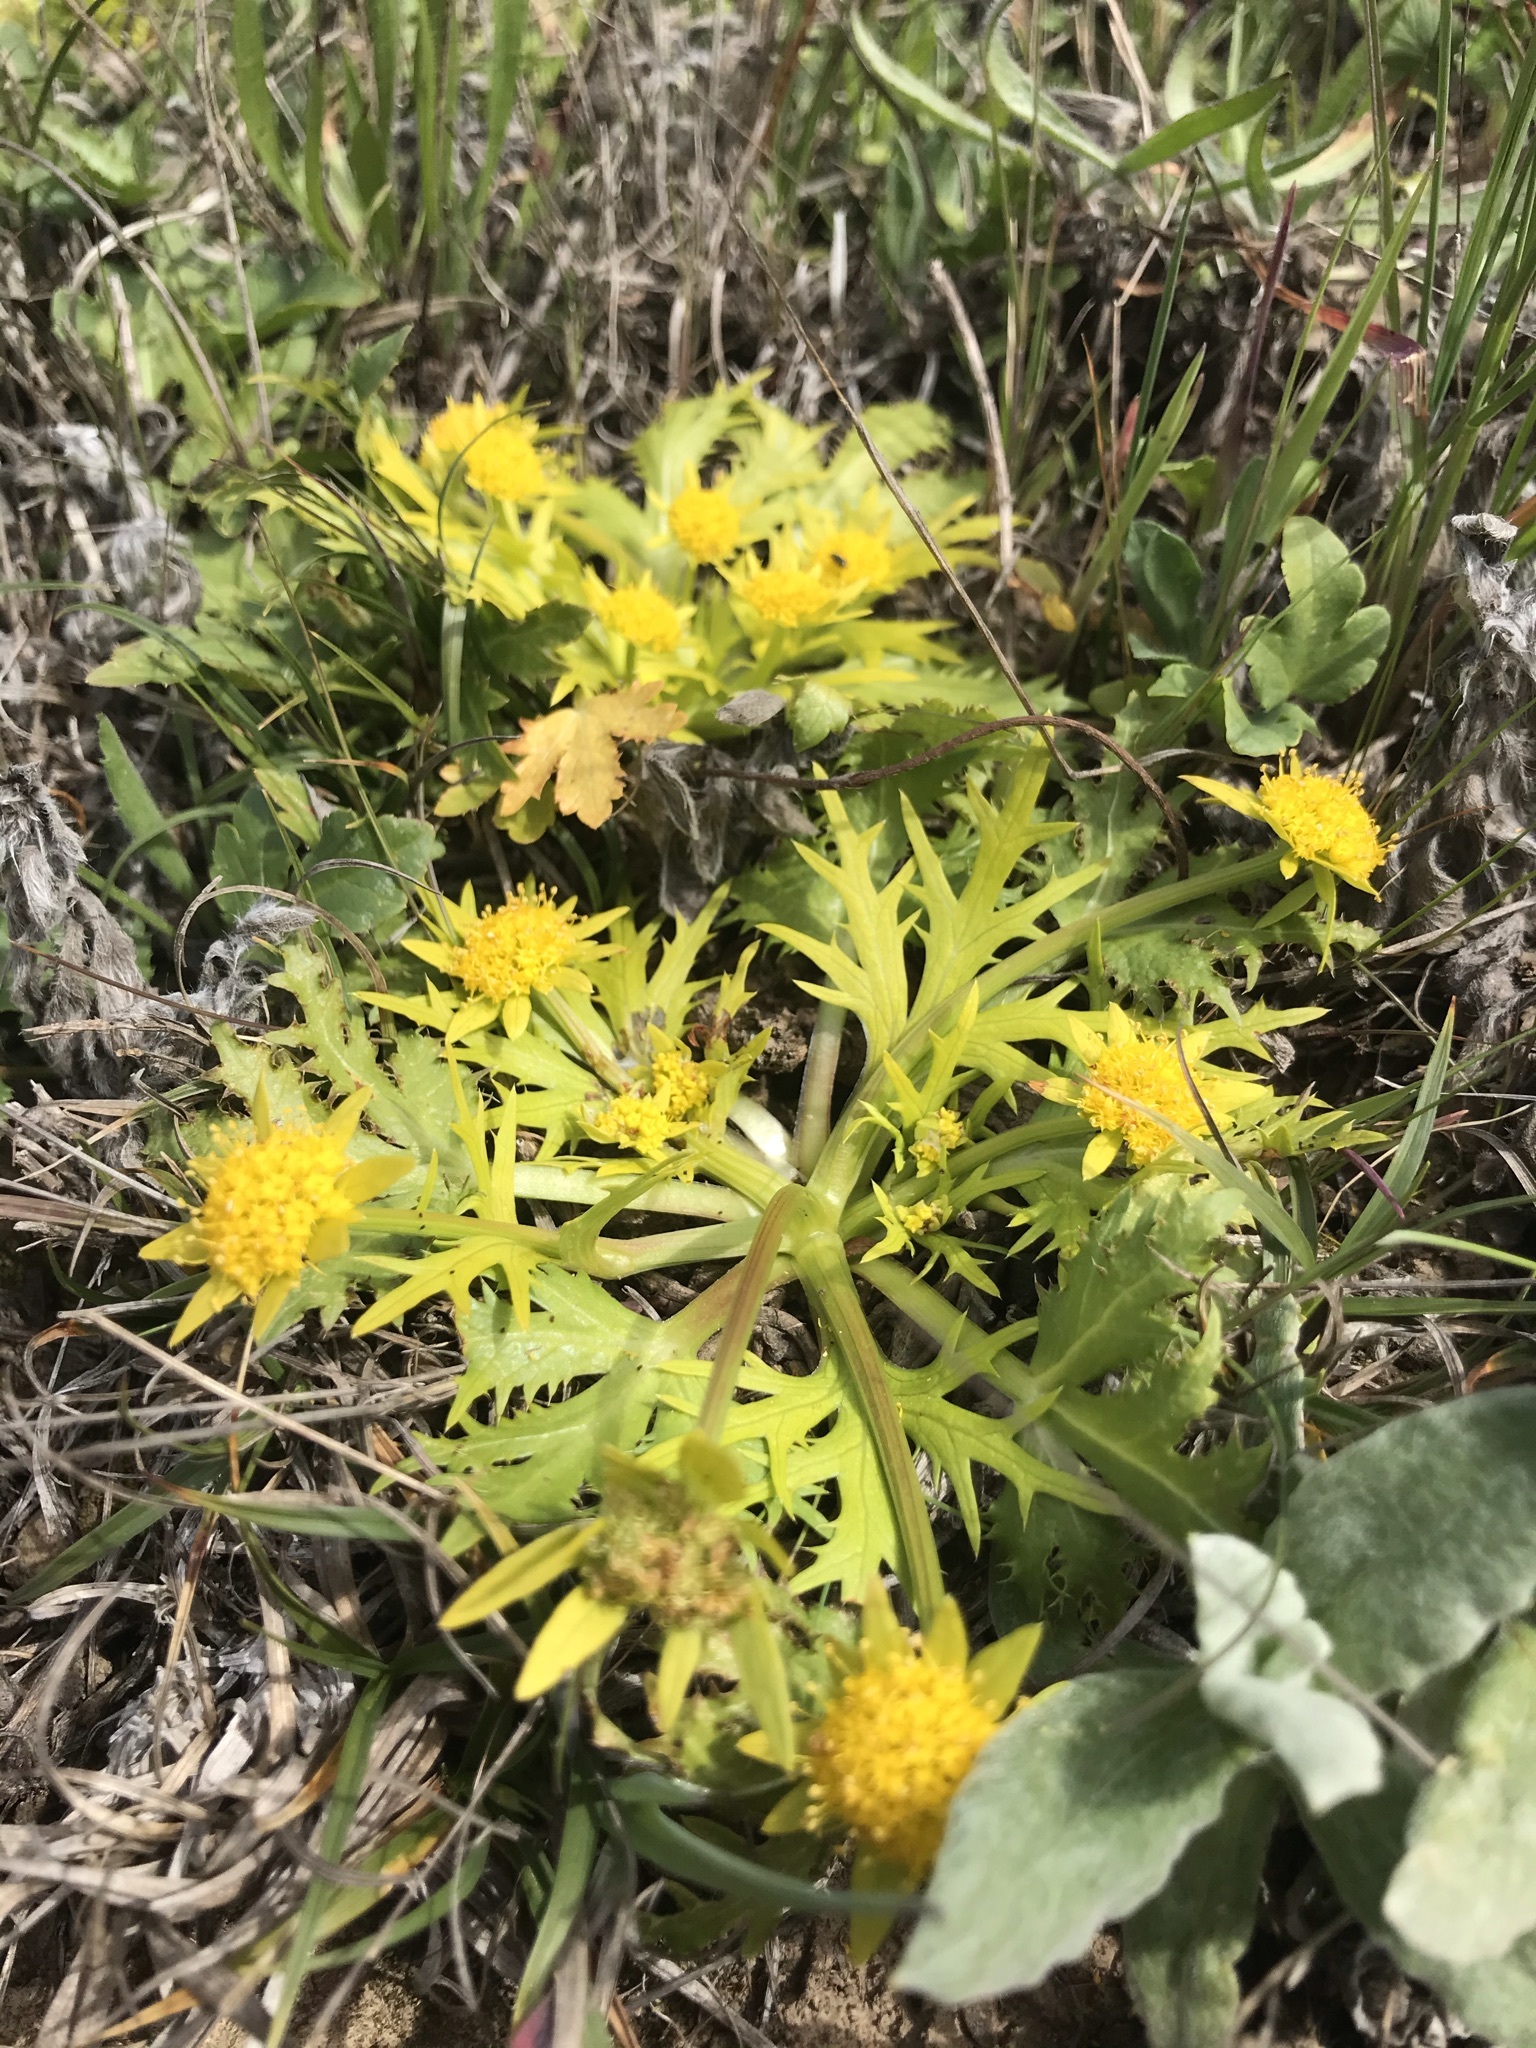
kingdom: Plantae
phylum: Tracheophyta
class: Magnoliopsida
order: Apiales
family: Apiaceae
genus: Sanicula
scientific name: Sanicula arctopoides
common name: Footsteps-of-spring
